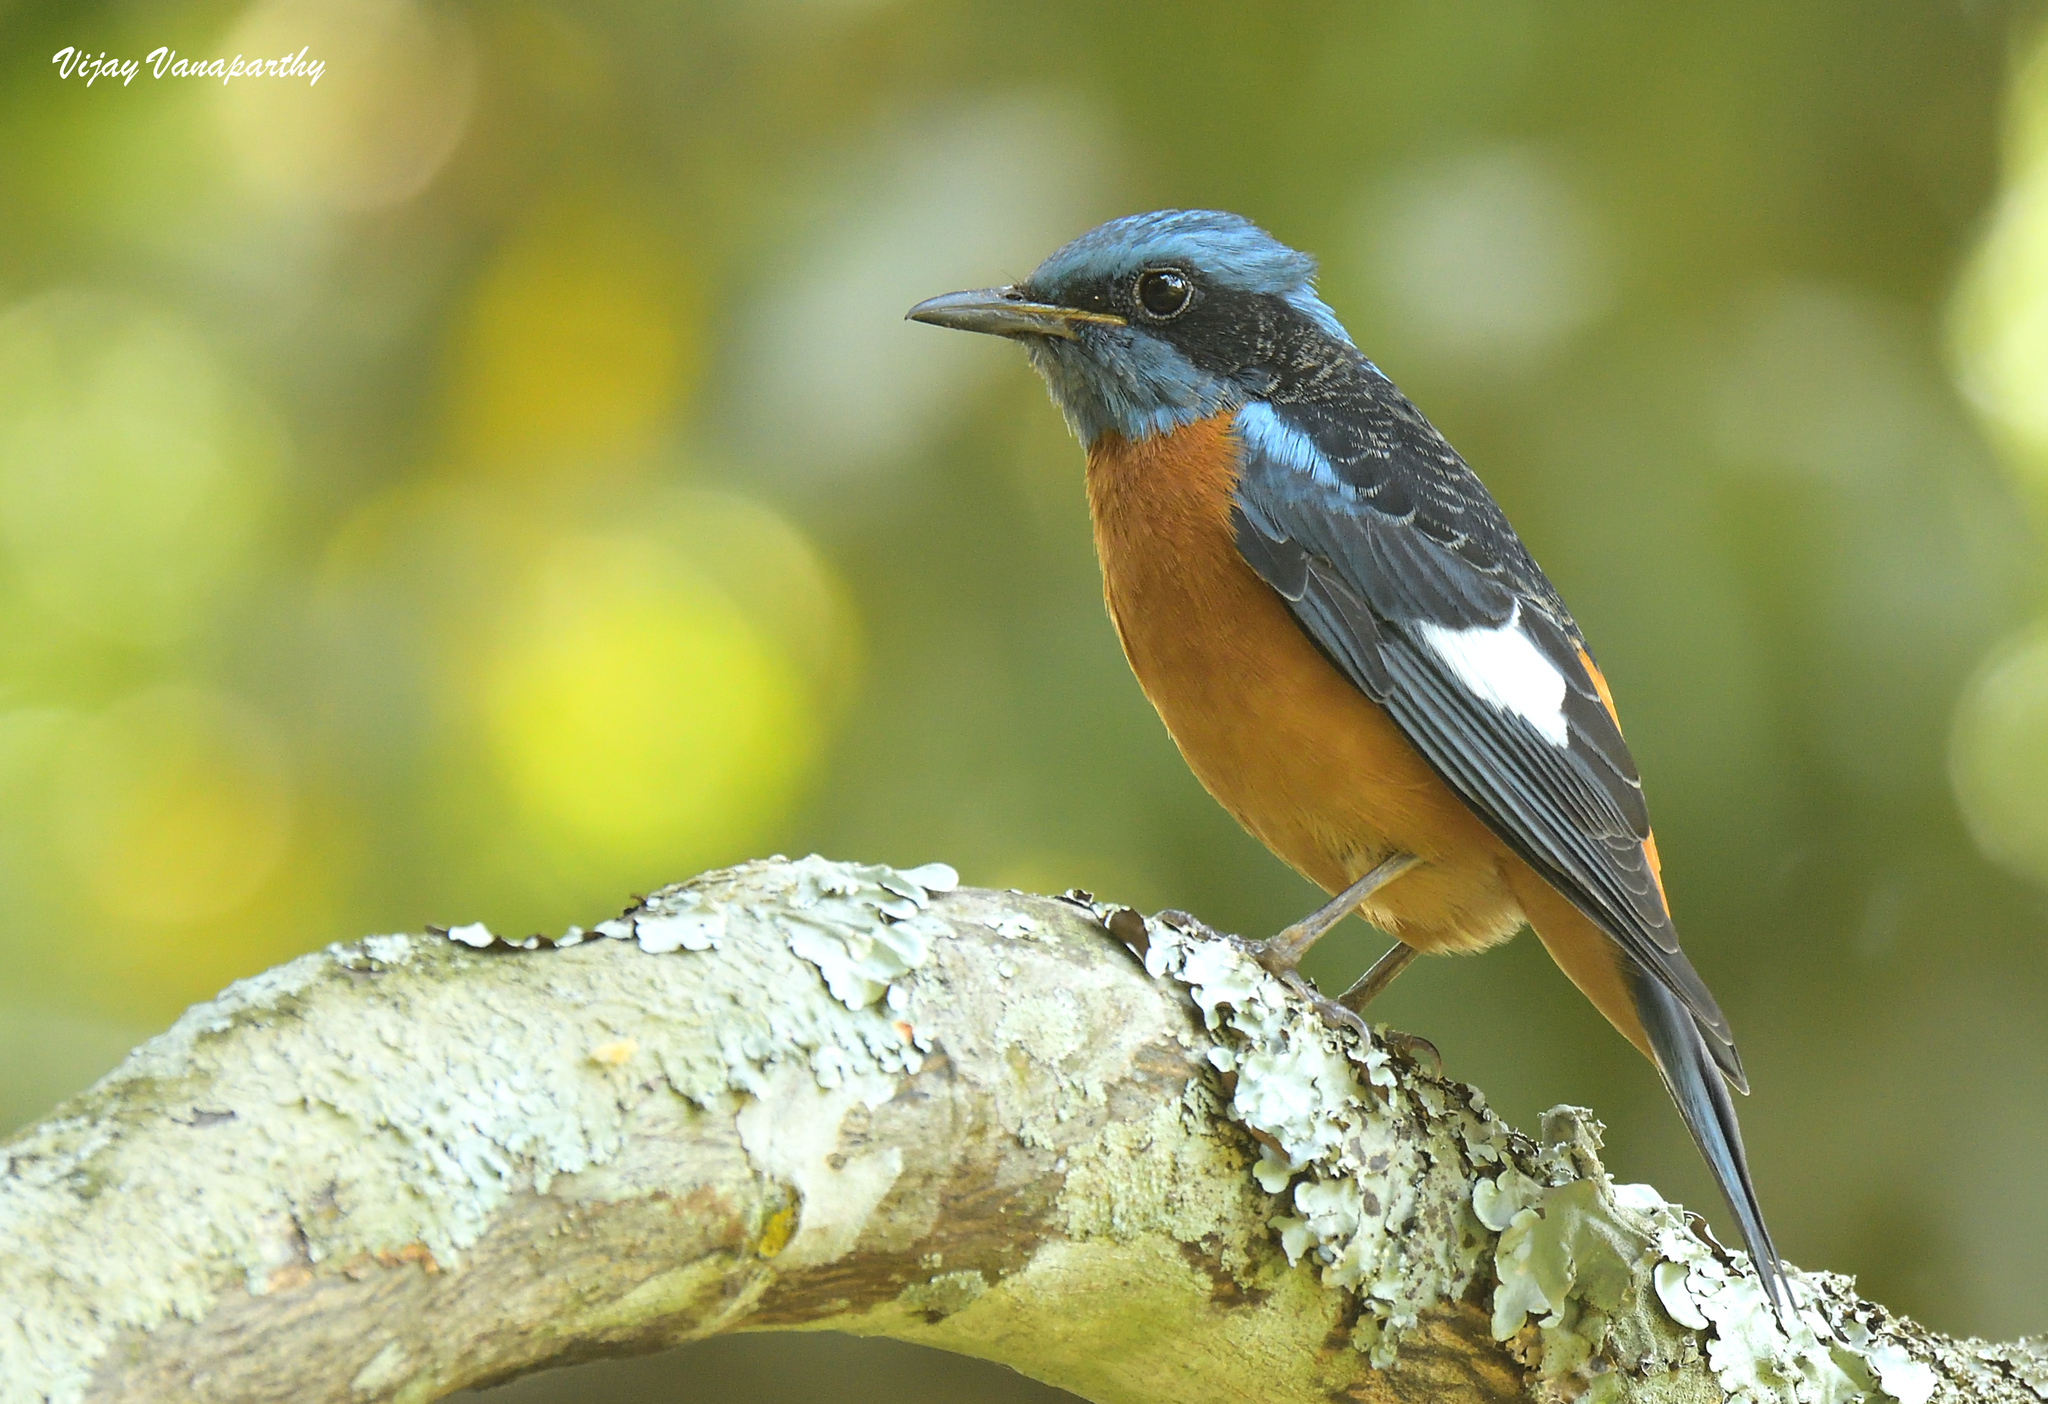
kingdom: Animalia
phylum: Chordata
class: Aves
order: Passeriformes
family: Muscicapidae
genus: Monticola
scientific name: Monticola cinclorhynchus
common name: Blue-capped rock thrush
